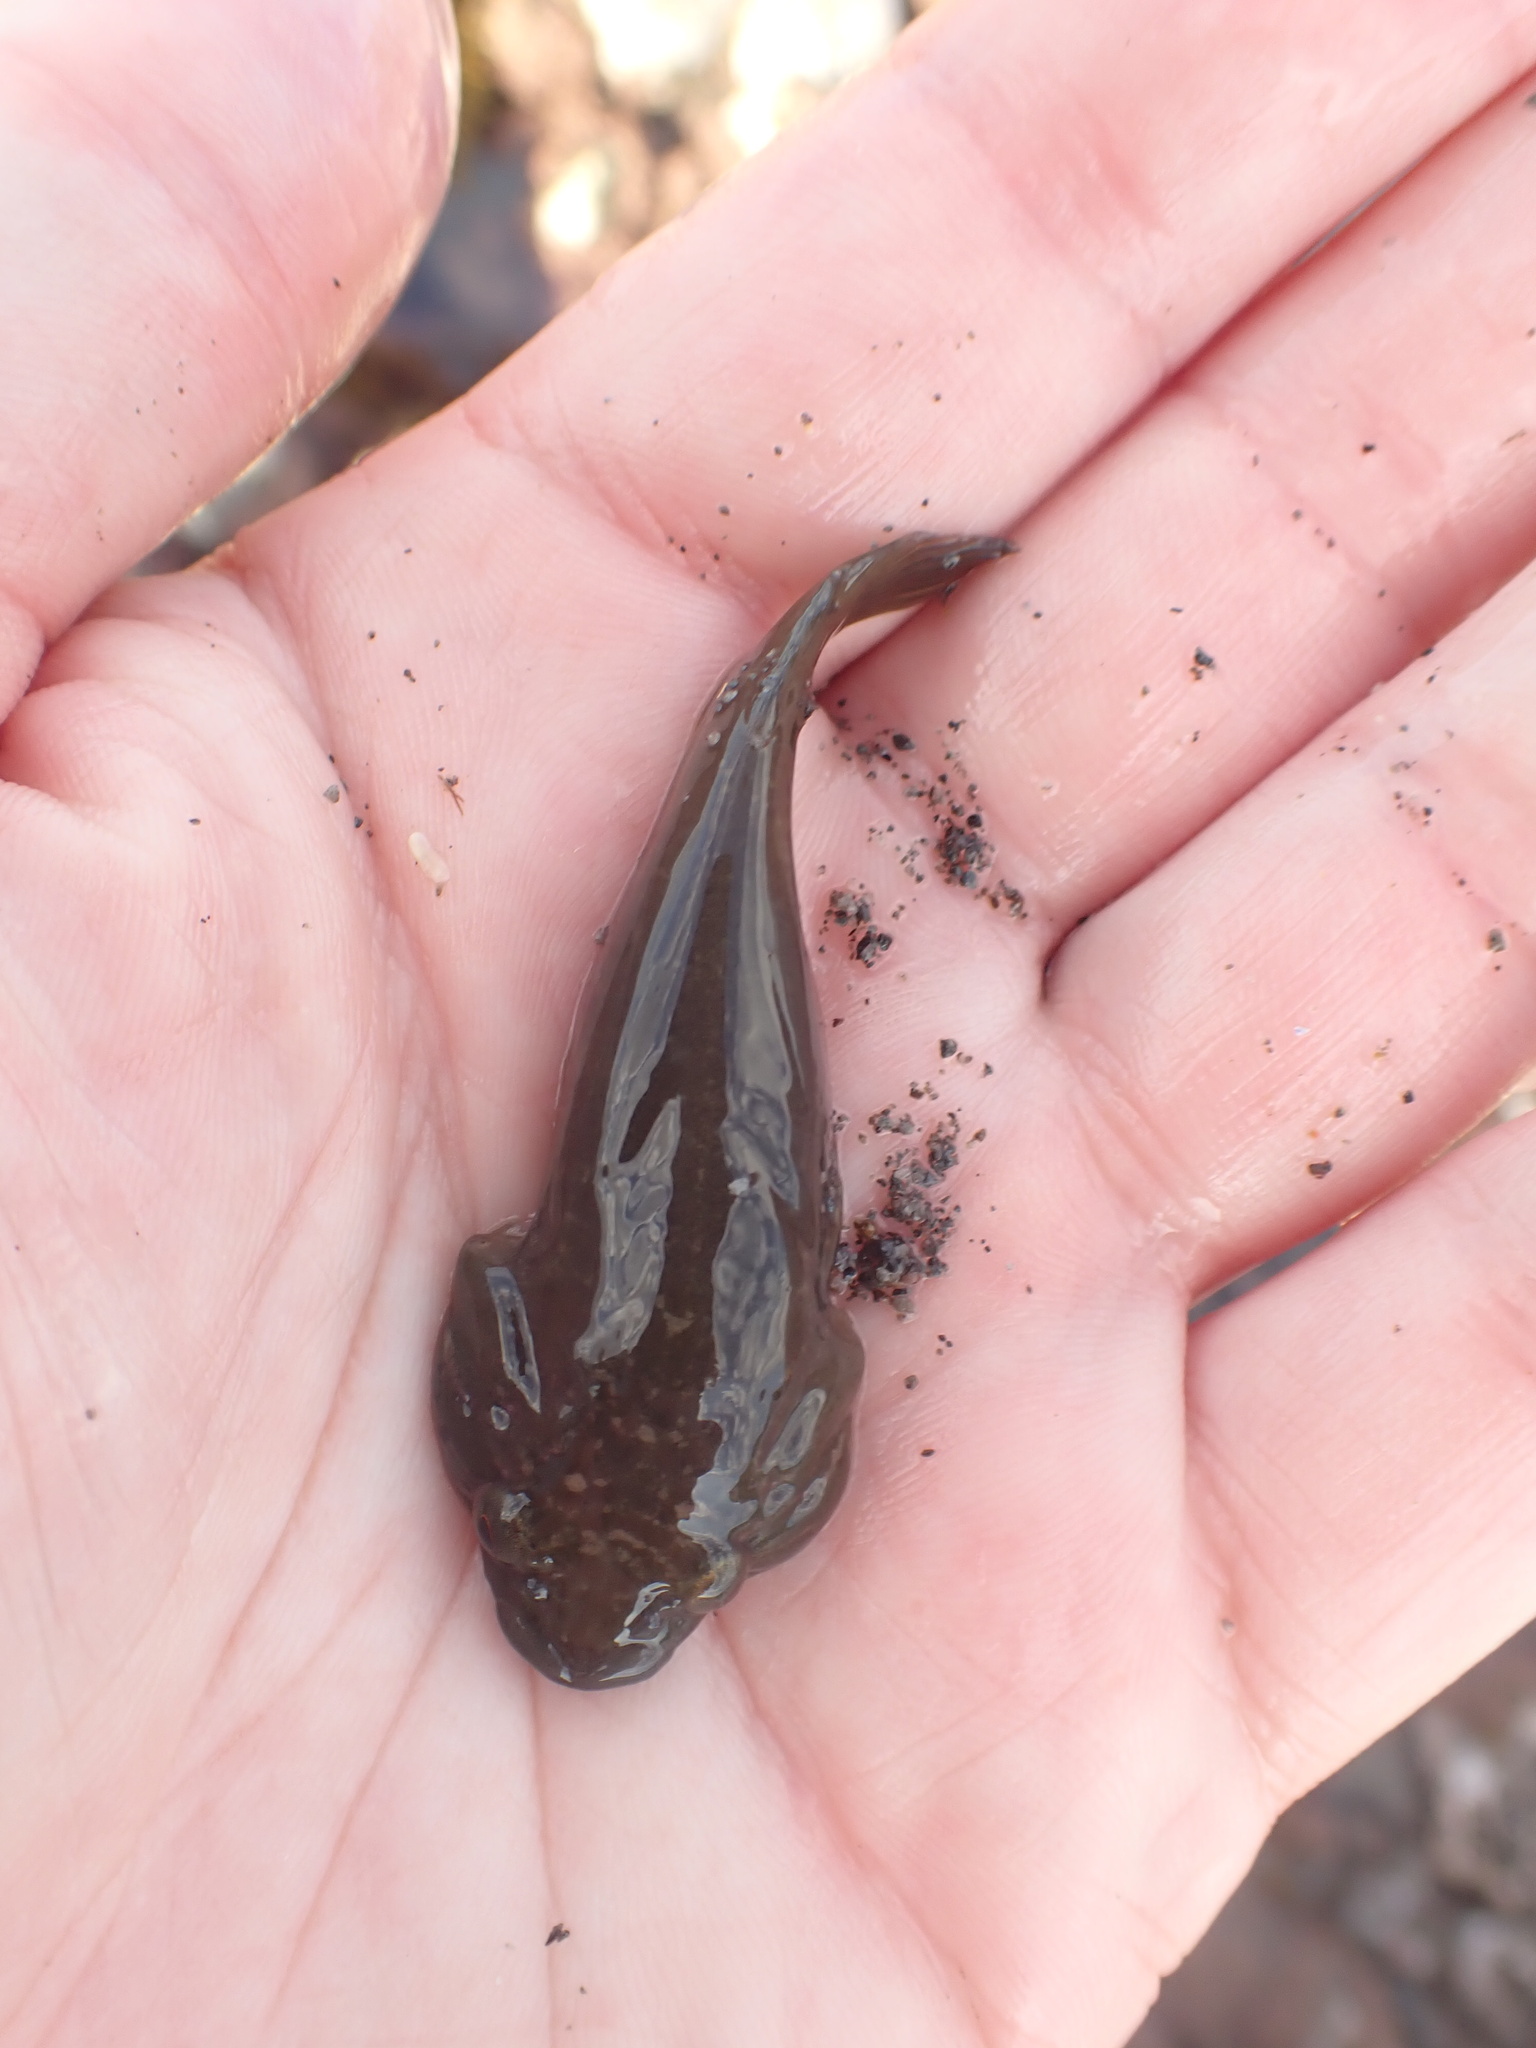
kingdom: Animalia
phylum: Chordata
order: Gobiesociformes
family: Gobiesocidae
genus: Trachelochismus
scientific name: Trachelochismus pinnulatus
